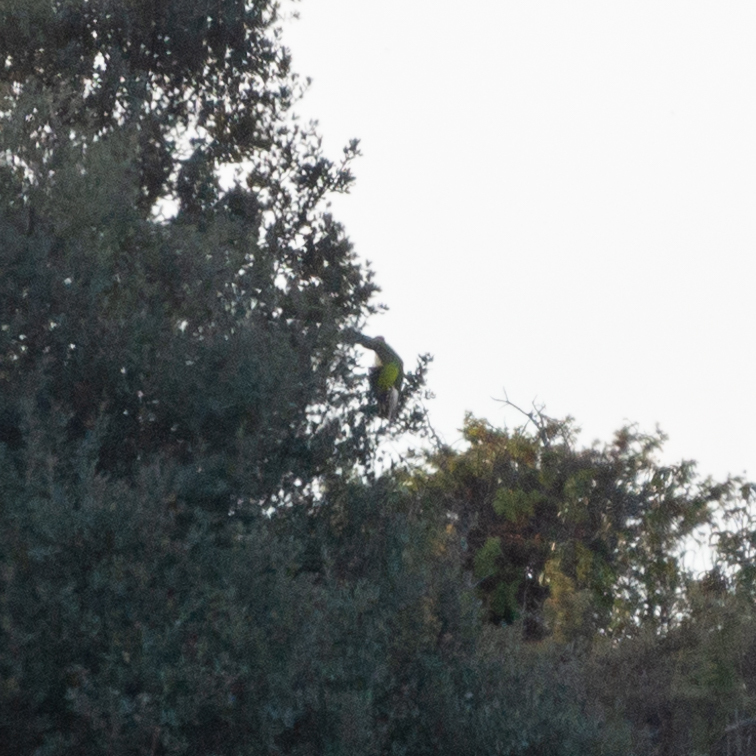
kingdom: Animalia
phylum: Chordata
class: Aves
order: Piciformes
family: Picidae
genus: Picus
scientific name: Picus sharpei
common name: Iberian green woodpecker
